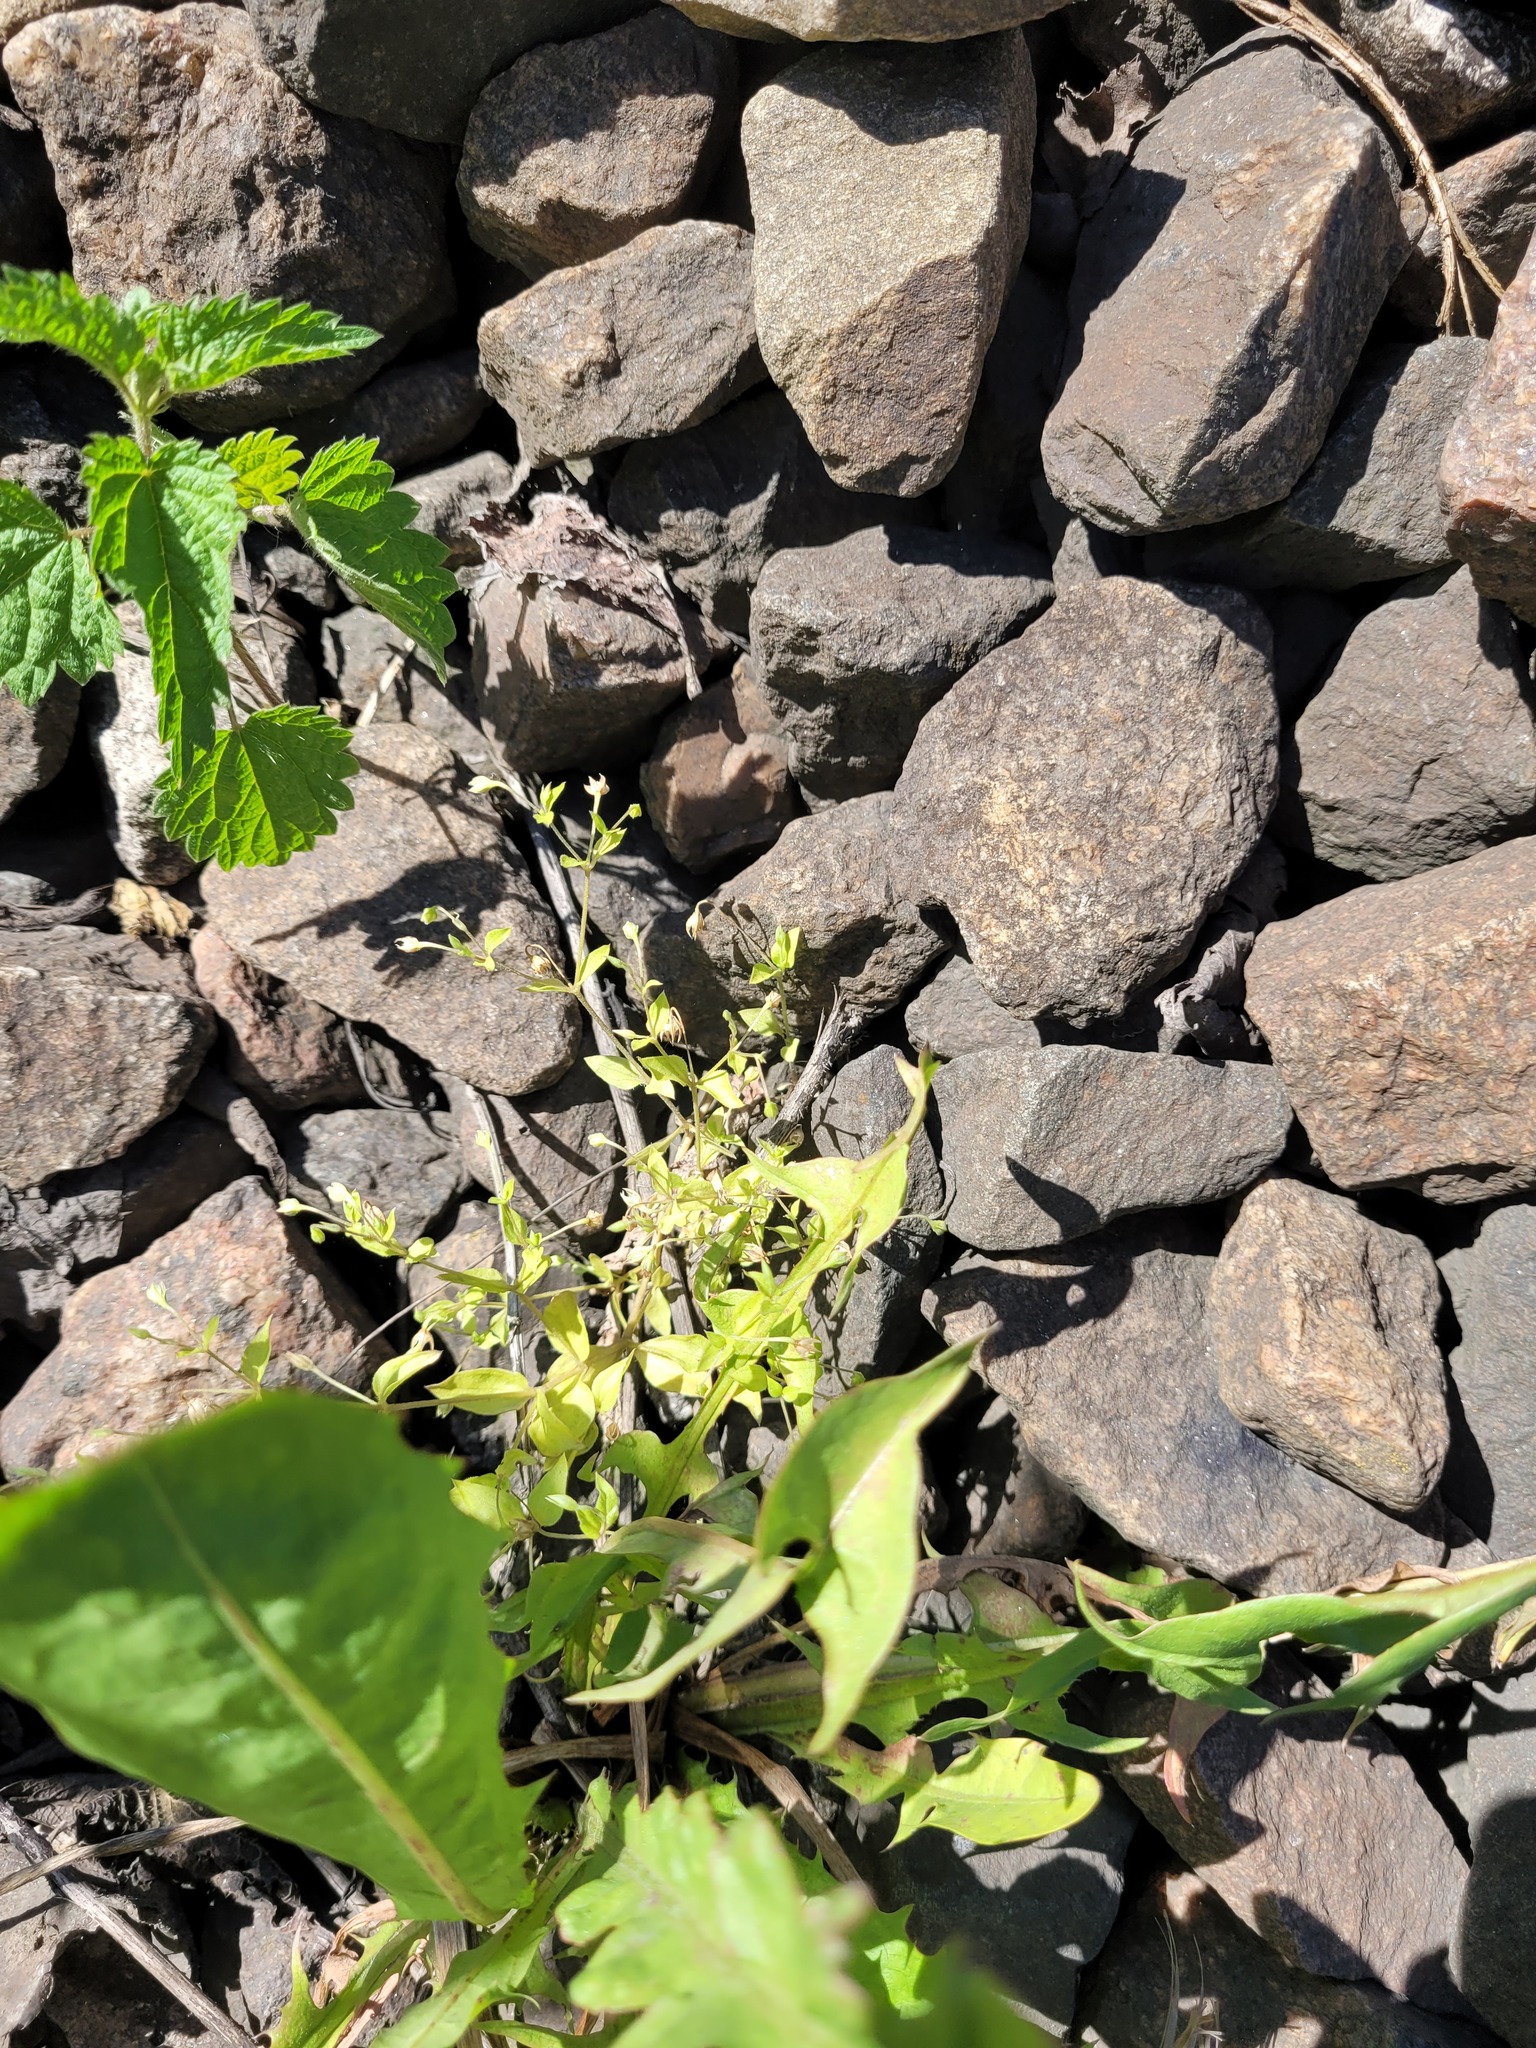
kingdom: Plantae
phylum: Tracheophyta
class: Magnoliopsida
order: Caryophyllales
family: Caryophyllaceae
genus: Moehringia
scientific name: Moehringia trinervia
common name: Three-nerved sandwort
